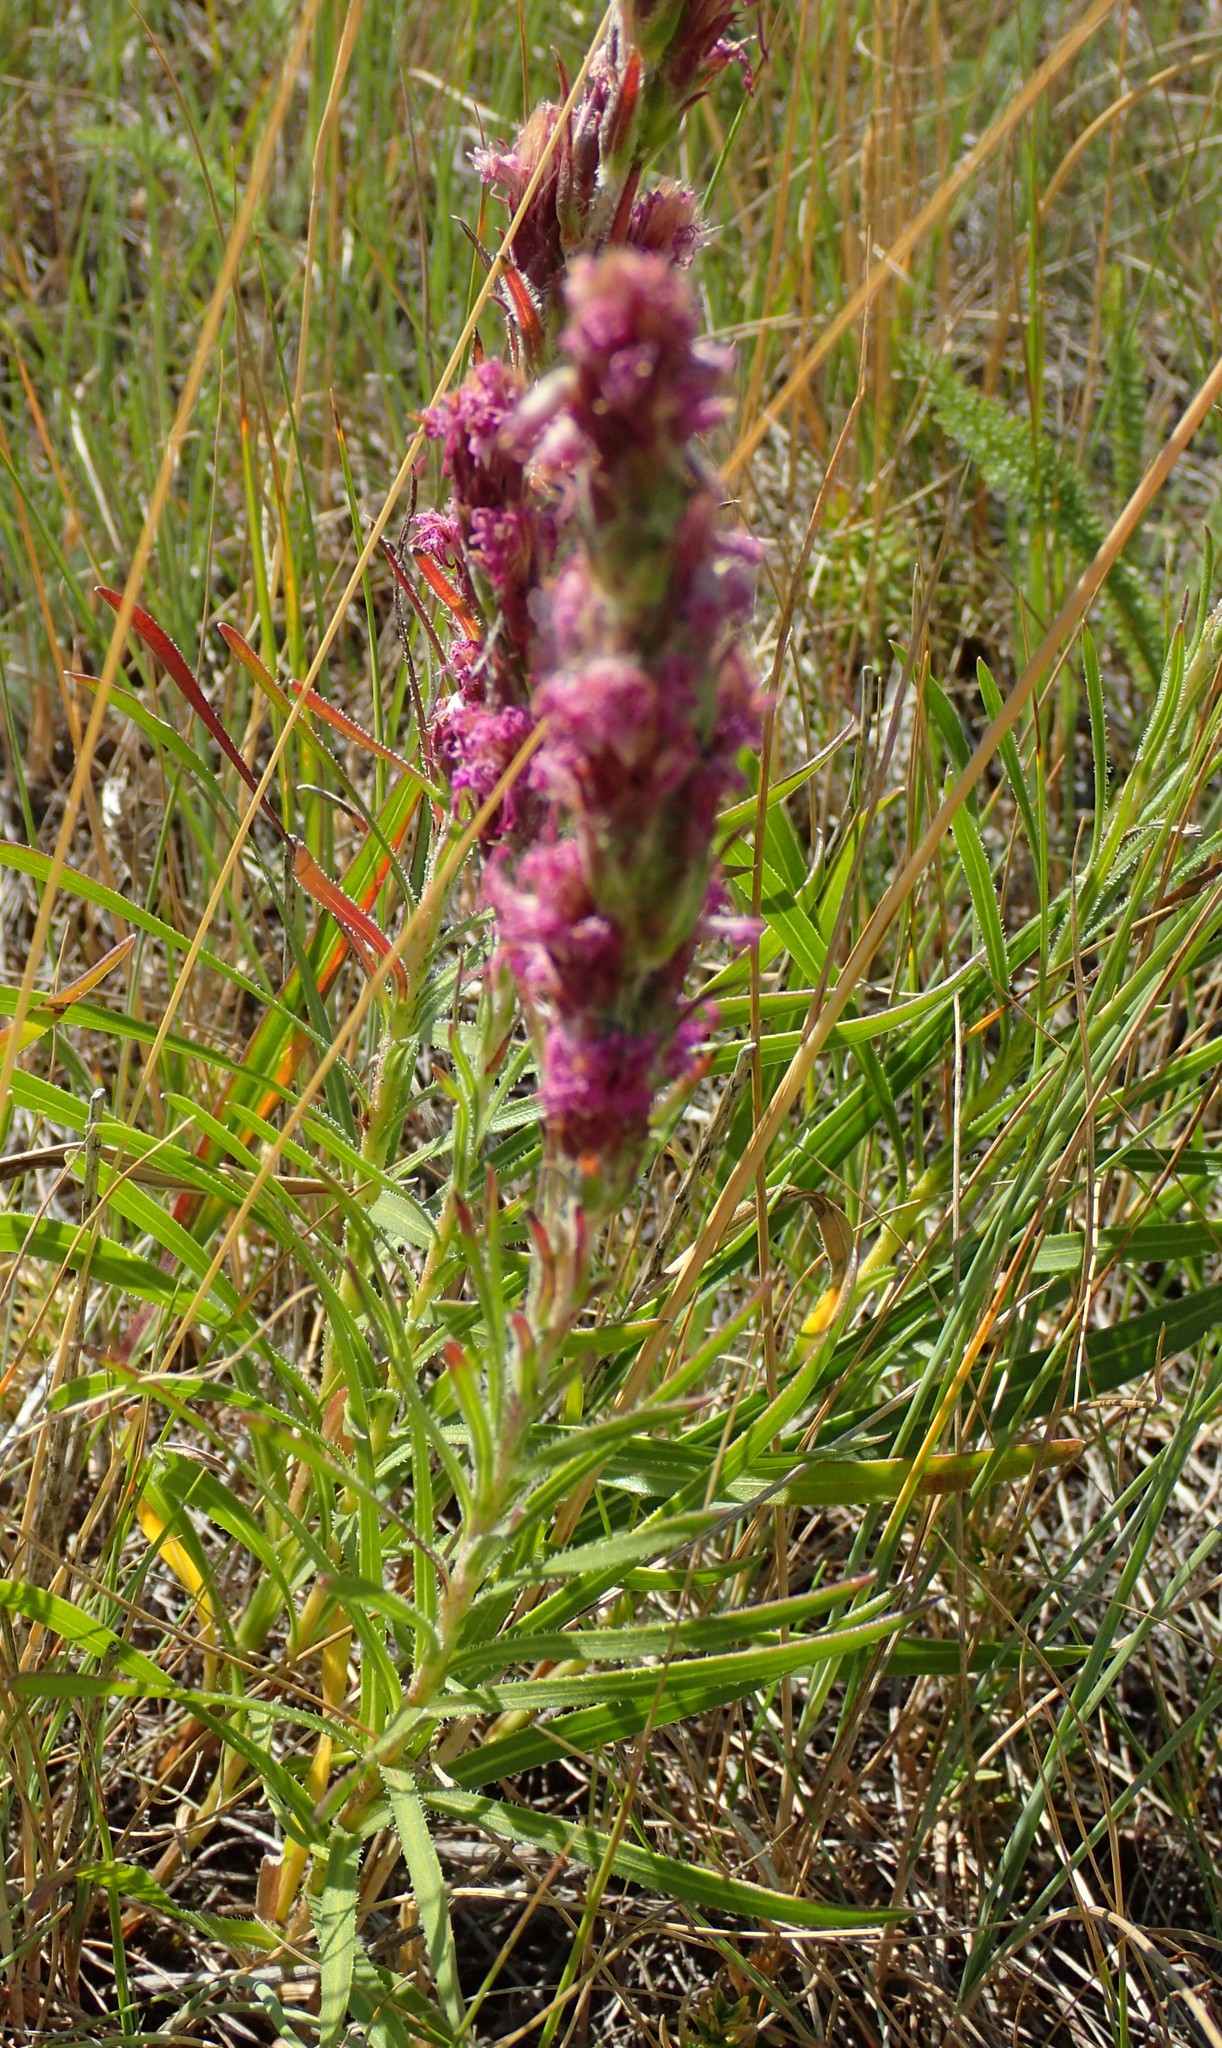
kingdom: Plantae
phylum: Tracheophyta
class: Magnoliopsida
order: Asterales
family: Asteraceae
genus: Liatris
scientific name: Liatris punctata
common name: Dotted gayfeather
